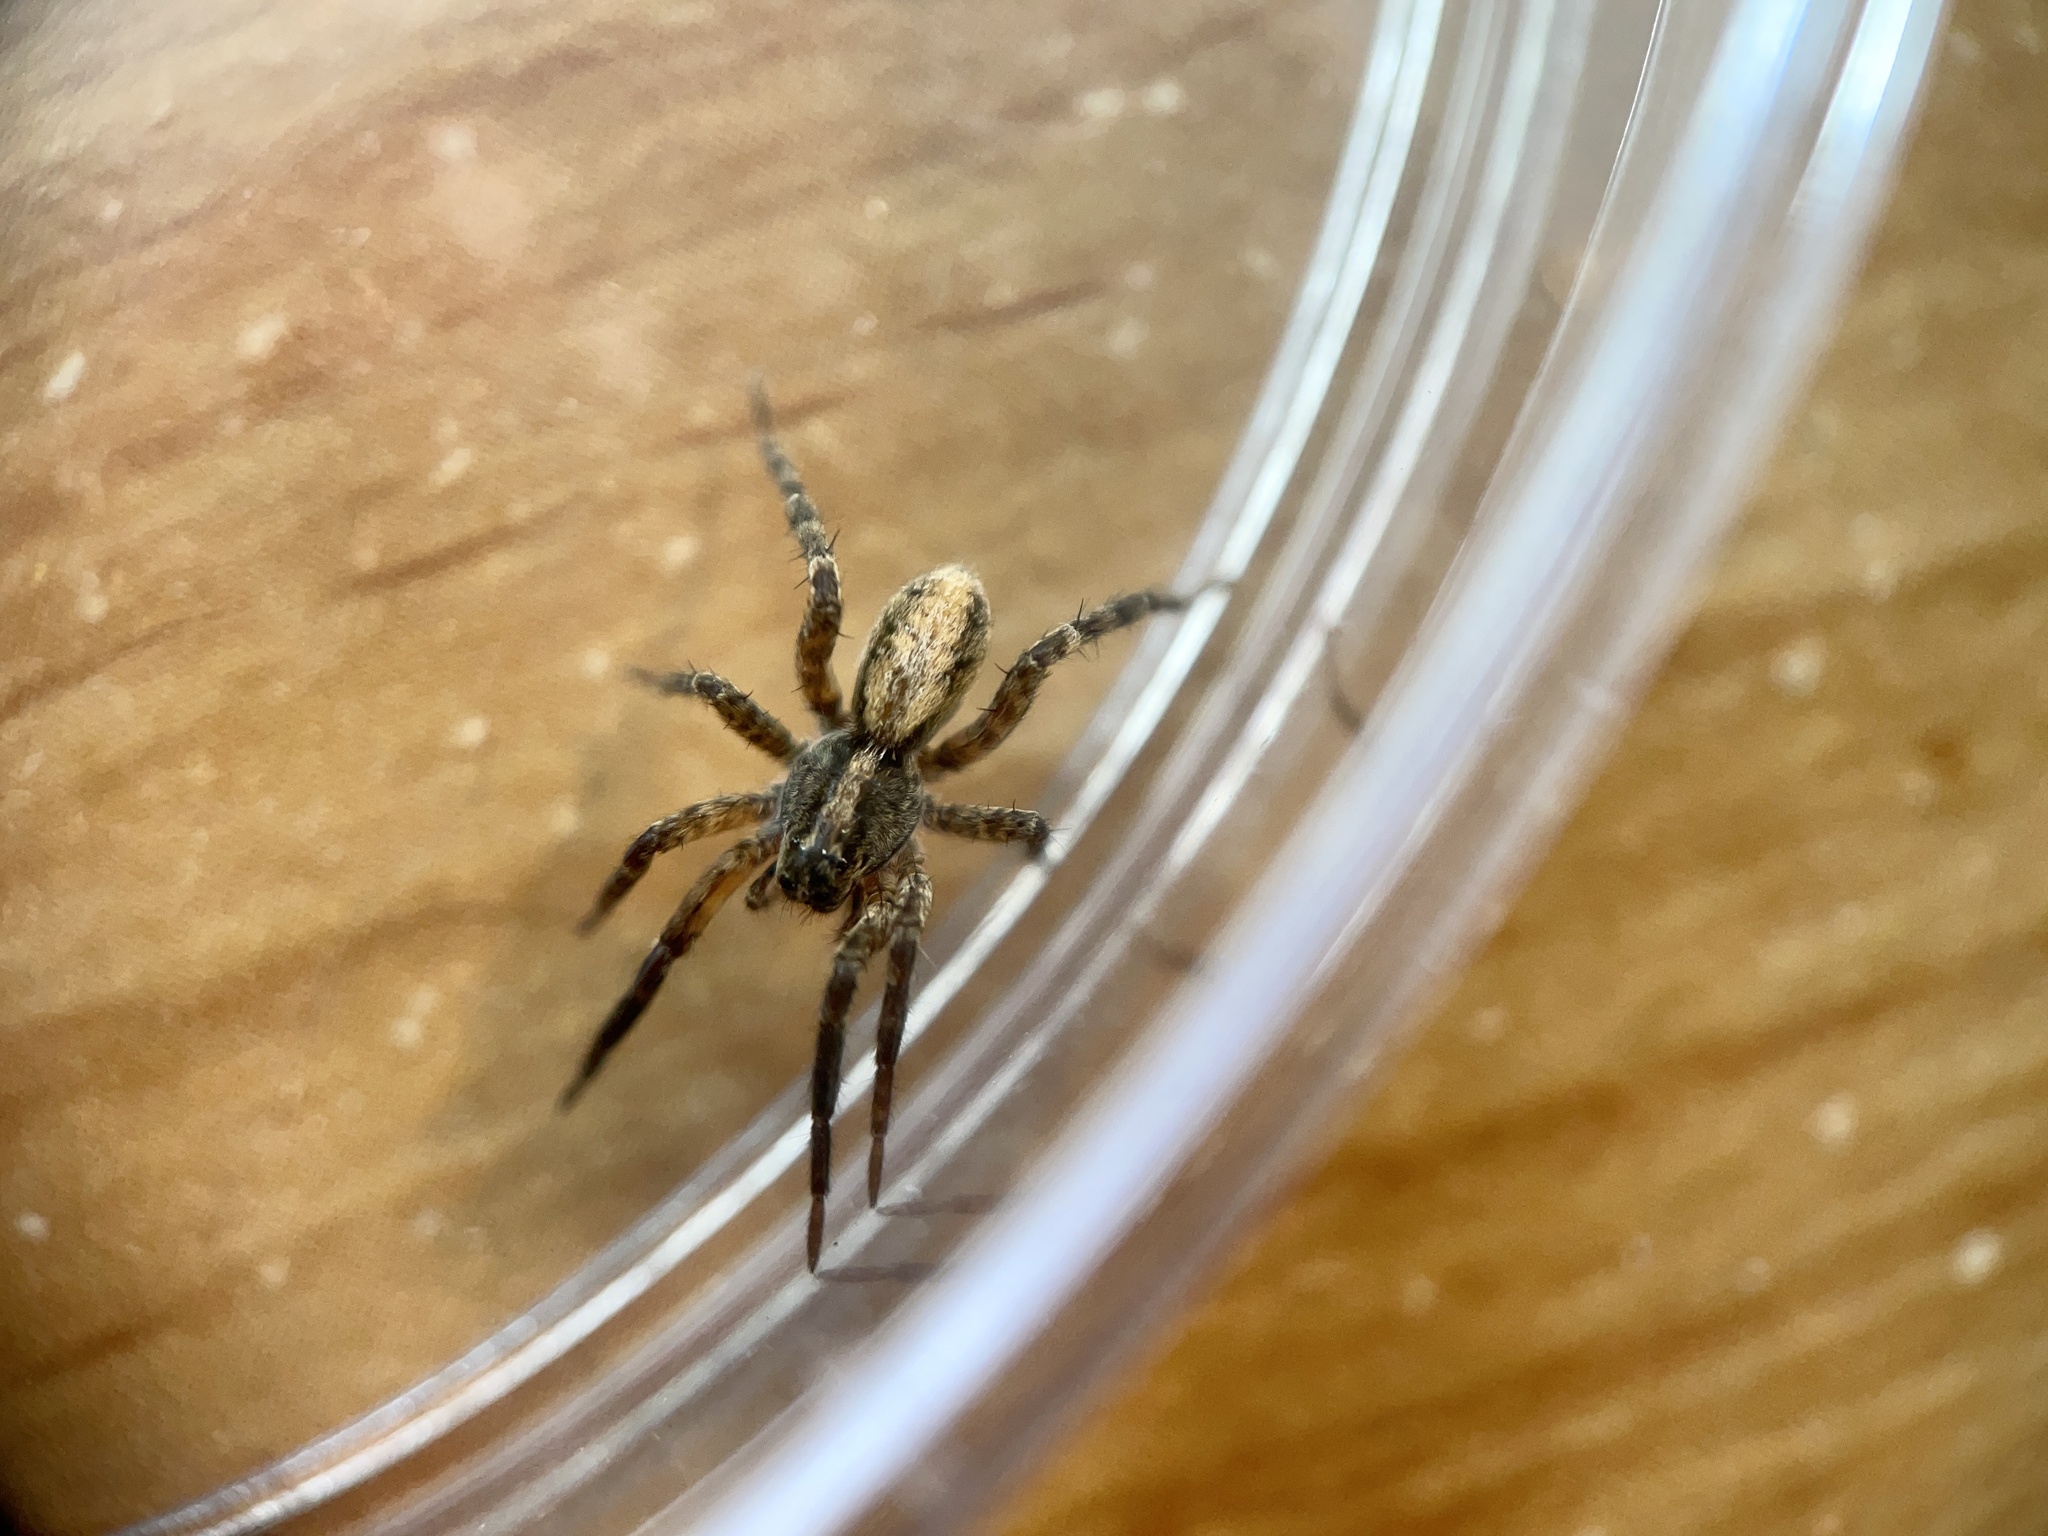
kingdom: Animalia
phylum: Arthropoda
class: Arachnida
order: Araneae
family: Lycosidae
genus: Schizocosa
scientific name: Schizocosa retrorsa
